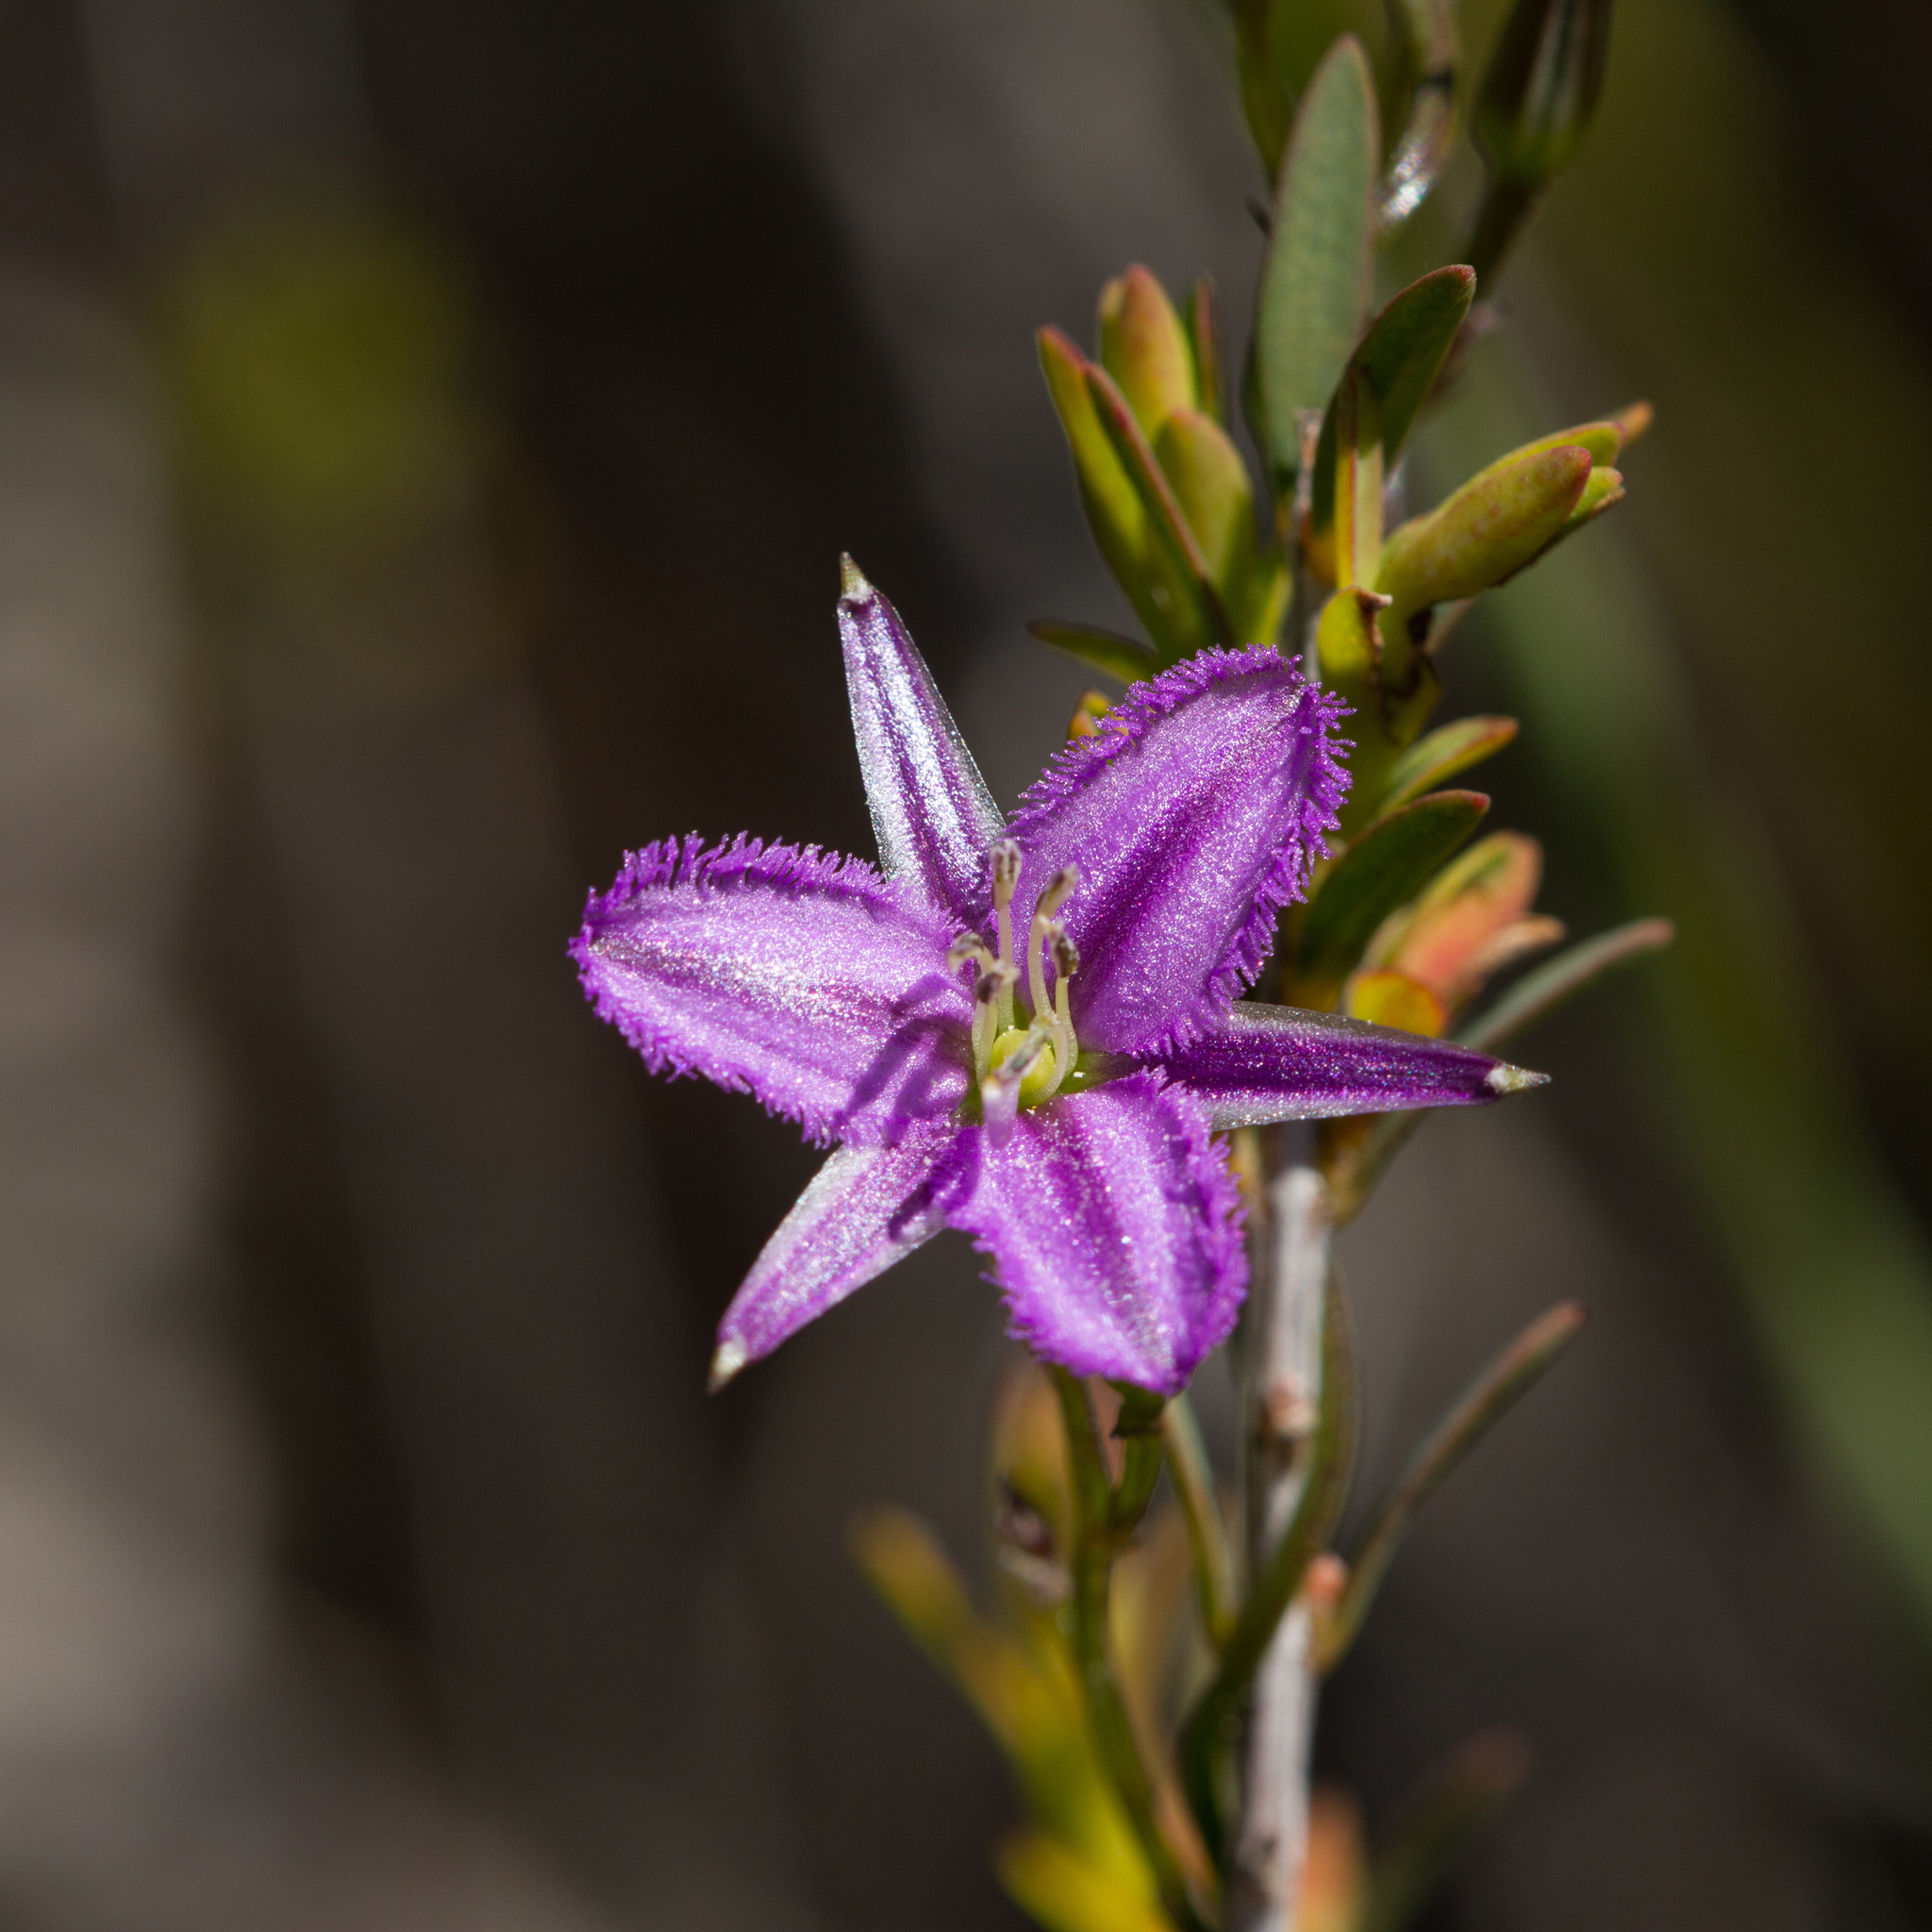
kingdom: Plantae
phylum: Tracheophyta
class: Liliopsida
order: Asparagales
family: Asparagaceae
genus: Thysanotus
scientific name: Thysanotus patersonii
